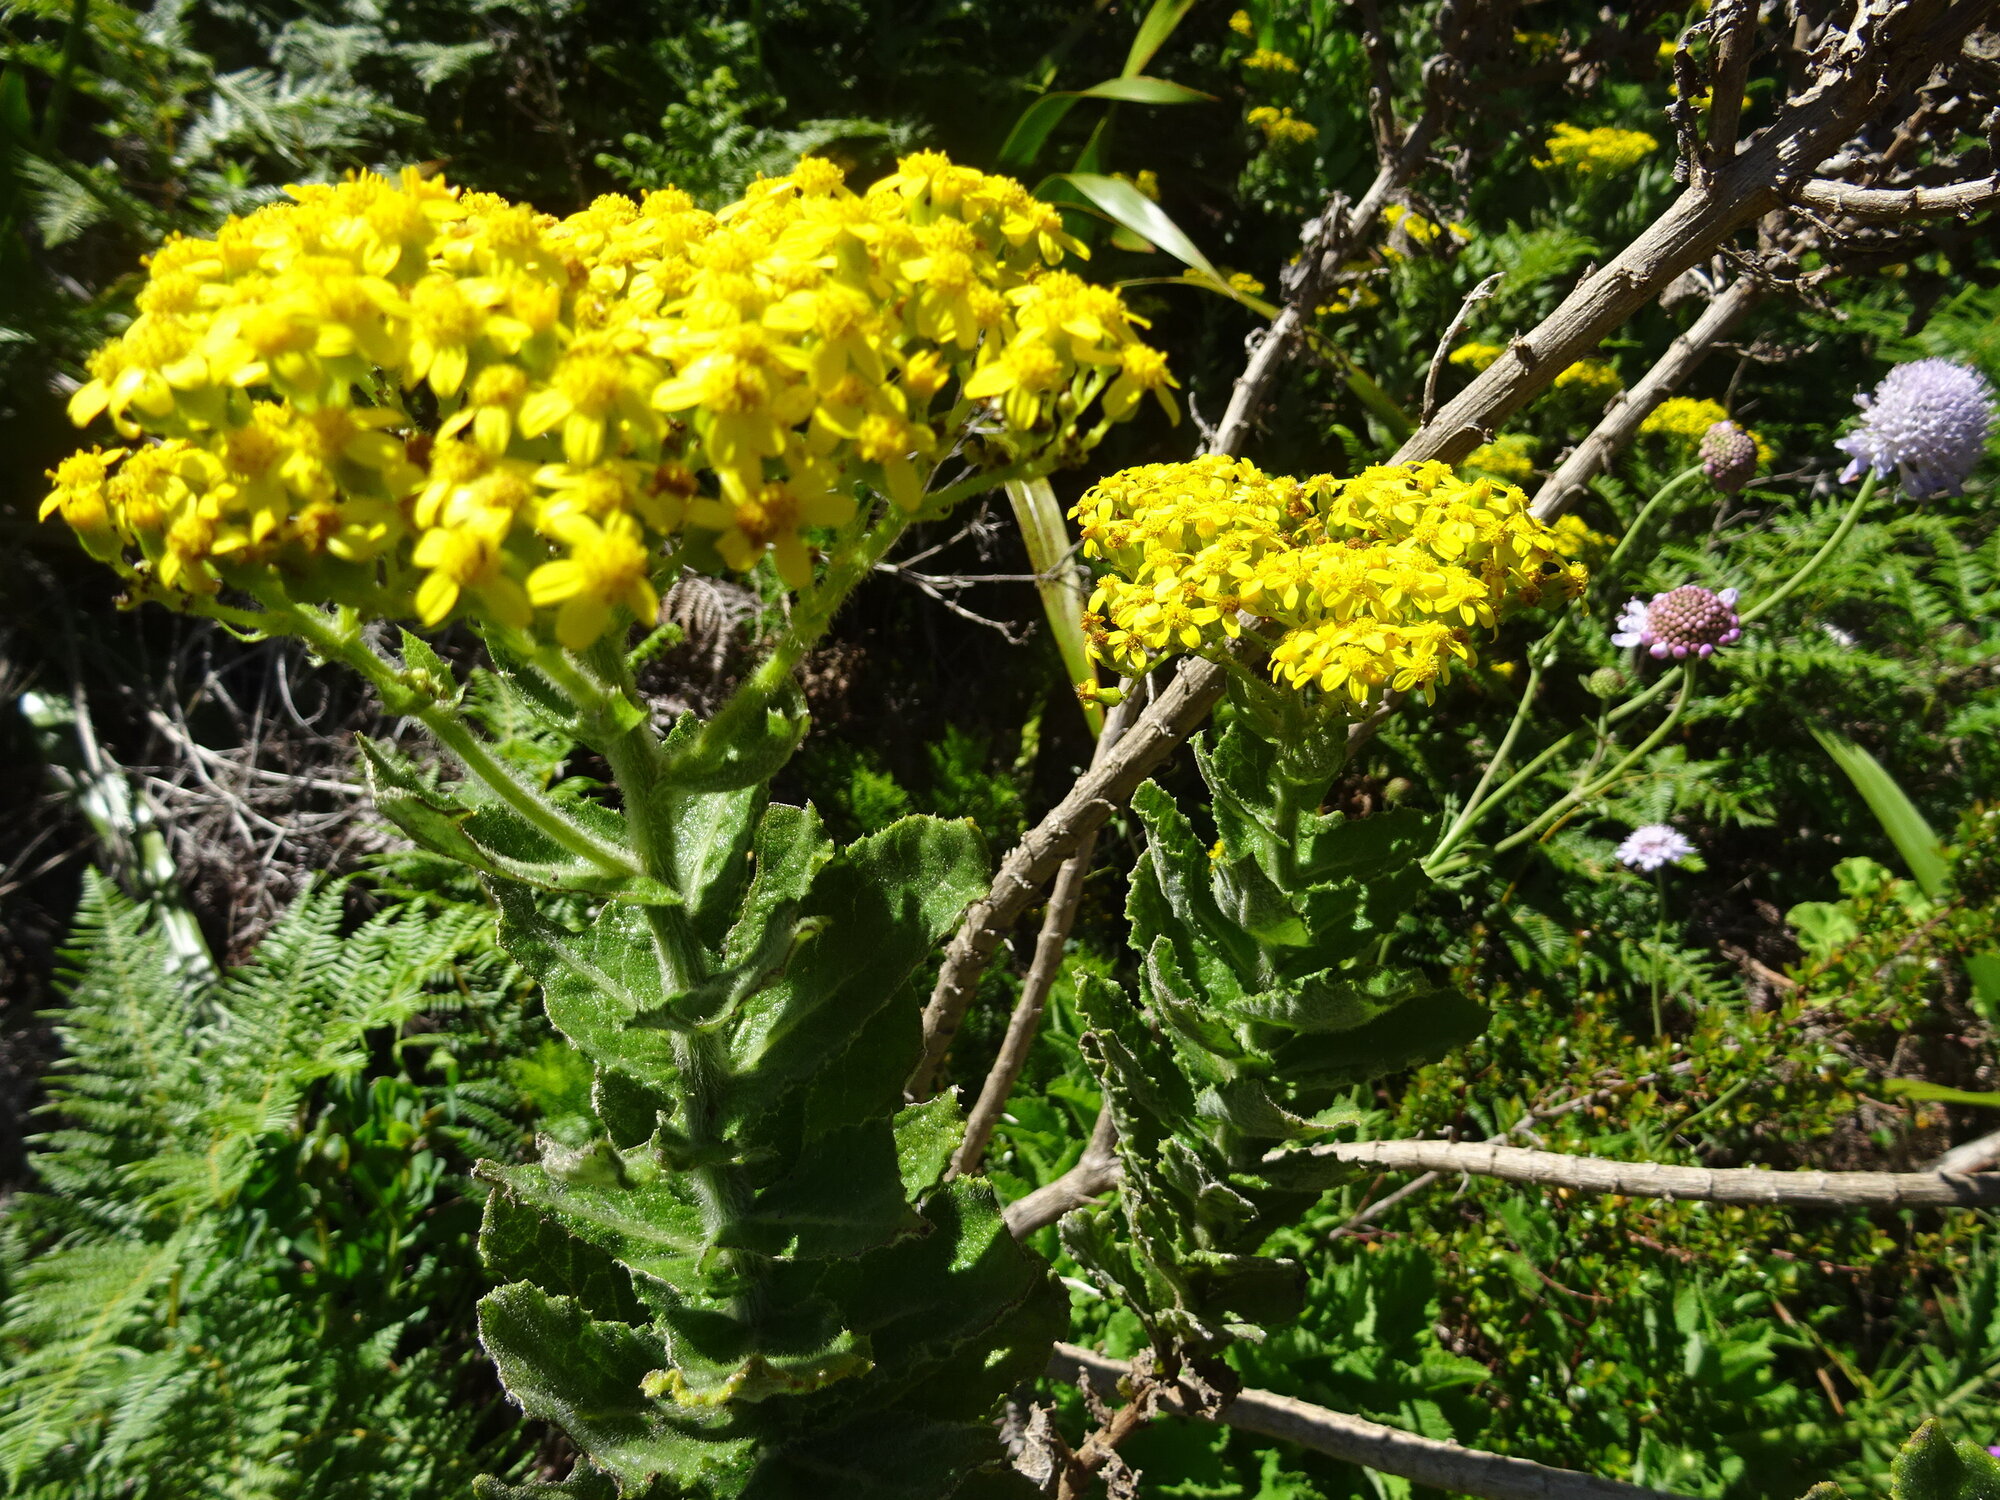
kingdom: Plantae
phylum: Tracheophyta
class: Magnoliopsida
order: Asterales
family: Asteraceae
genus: Senecio
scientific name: Senecio rigidus
